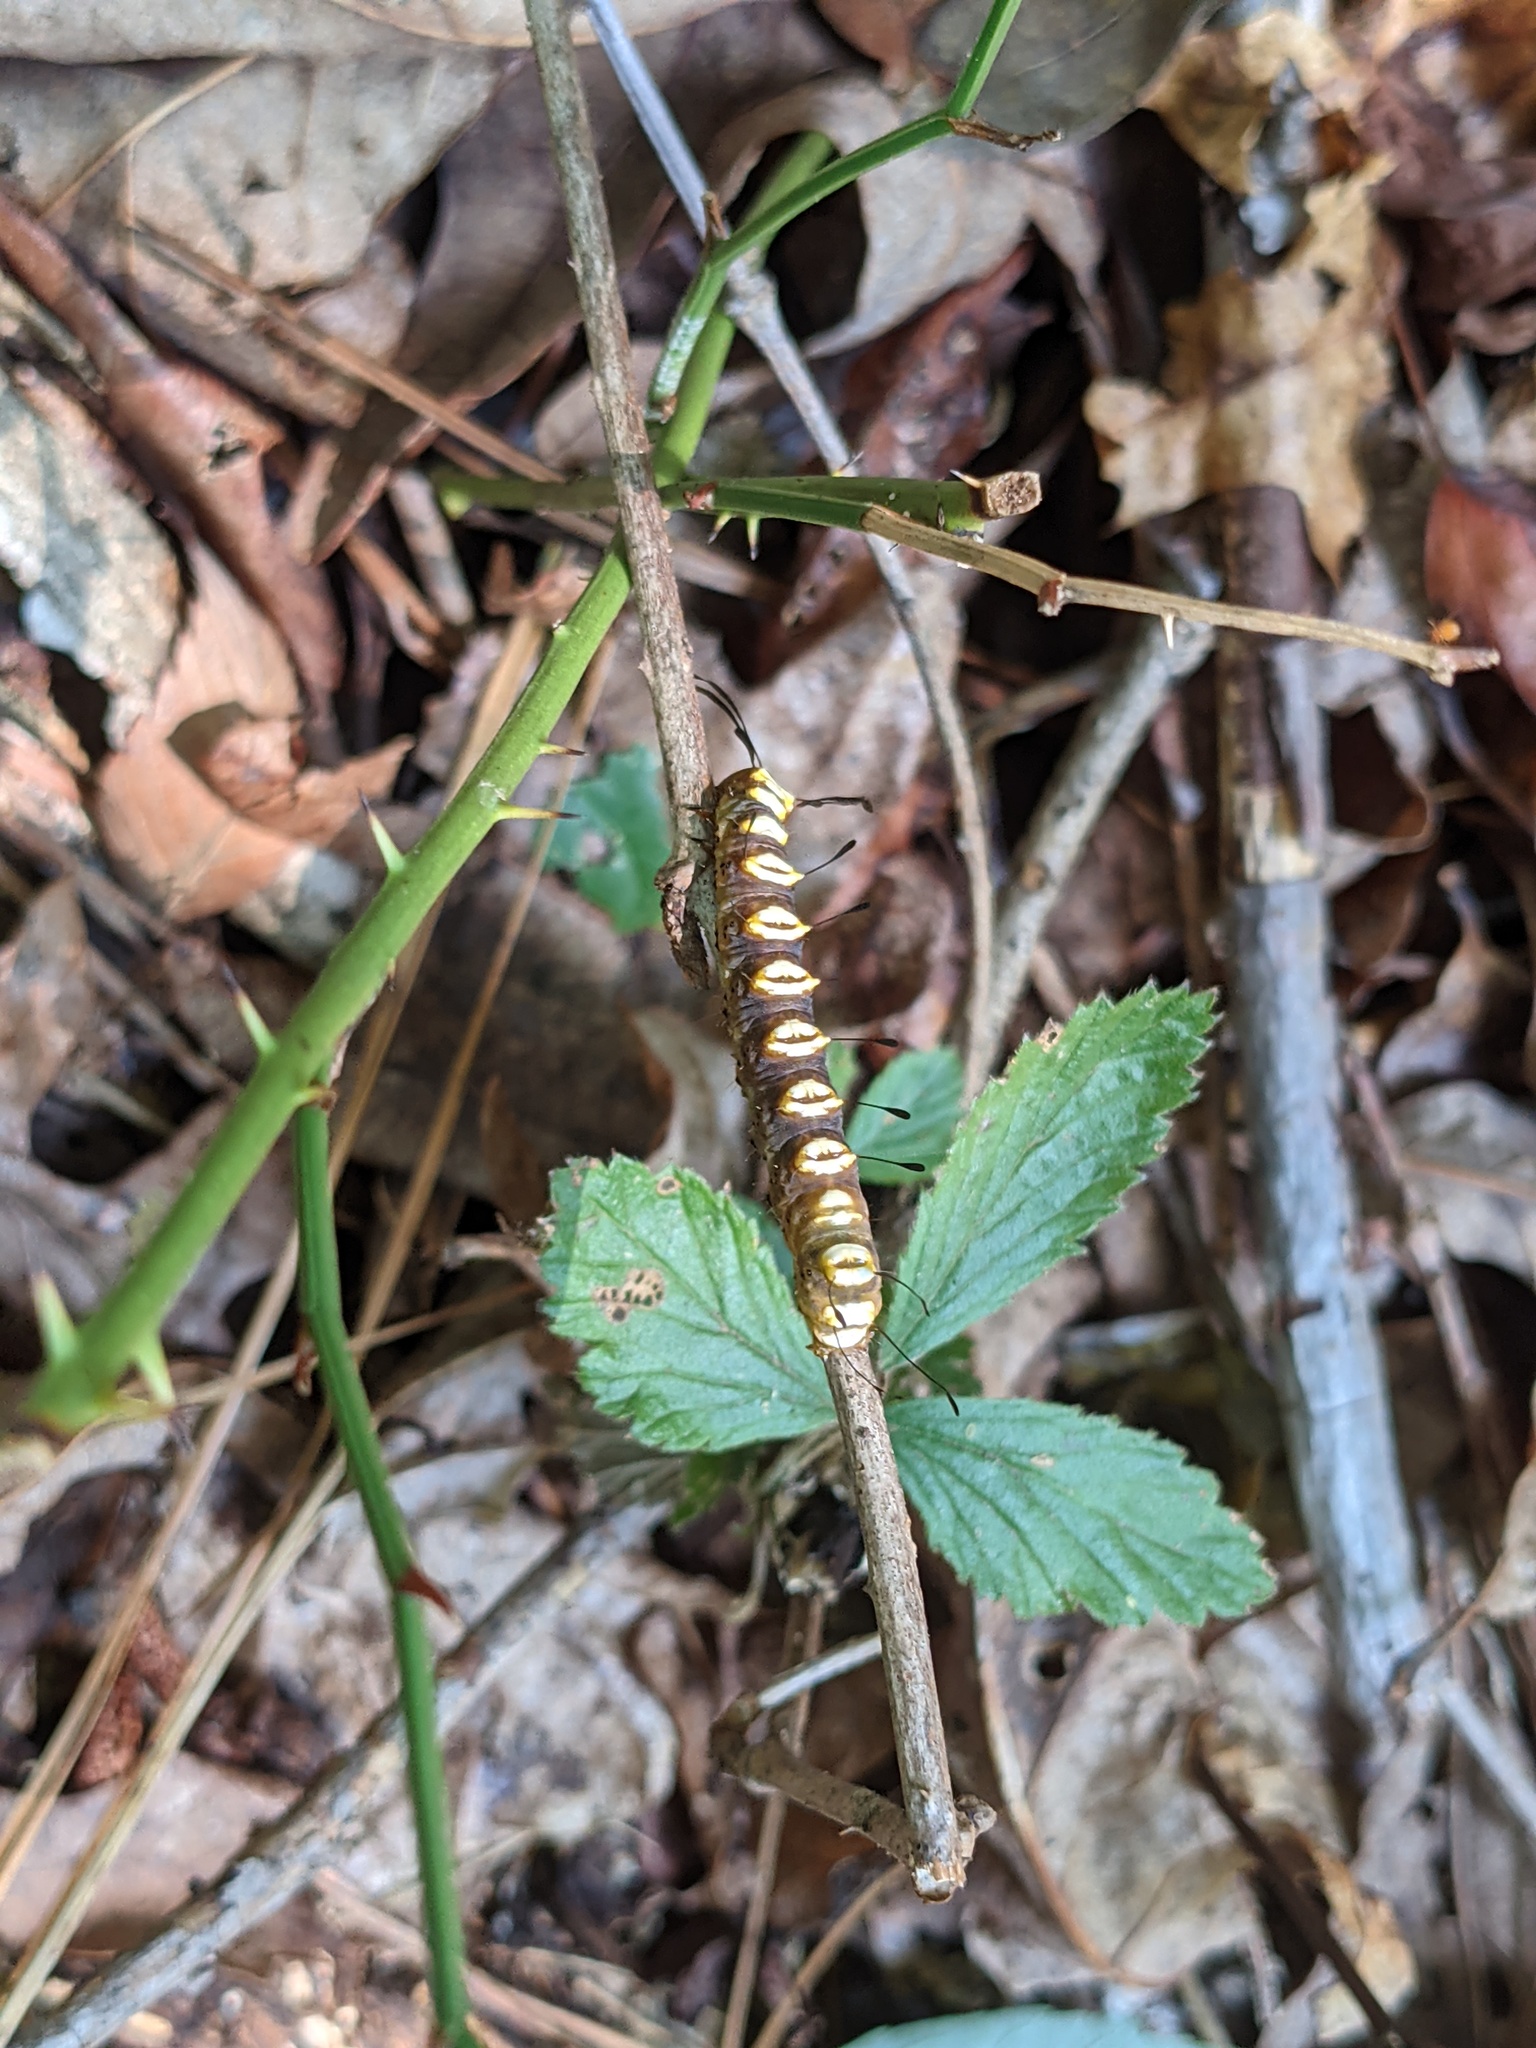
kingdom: Animalia
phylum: Arthropoda
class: Insecta
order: Lepidoptera
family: Noctuidae
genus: Acronicta
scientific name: Acronicta funeralis
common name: Funerary dagger
